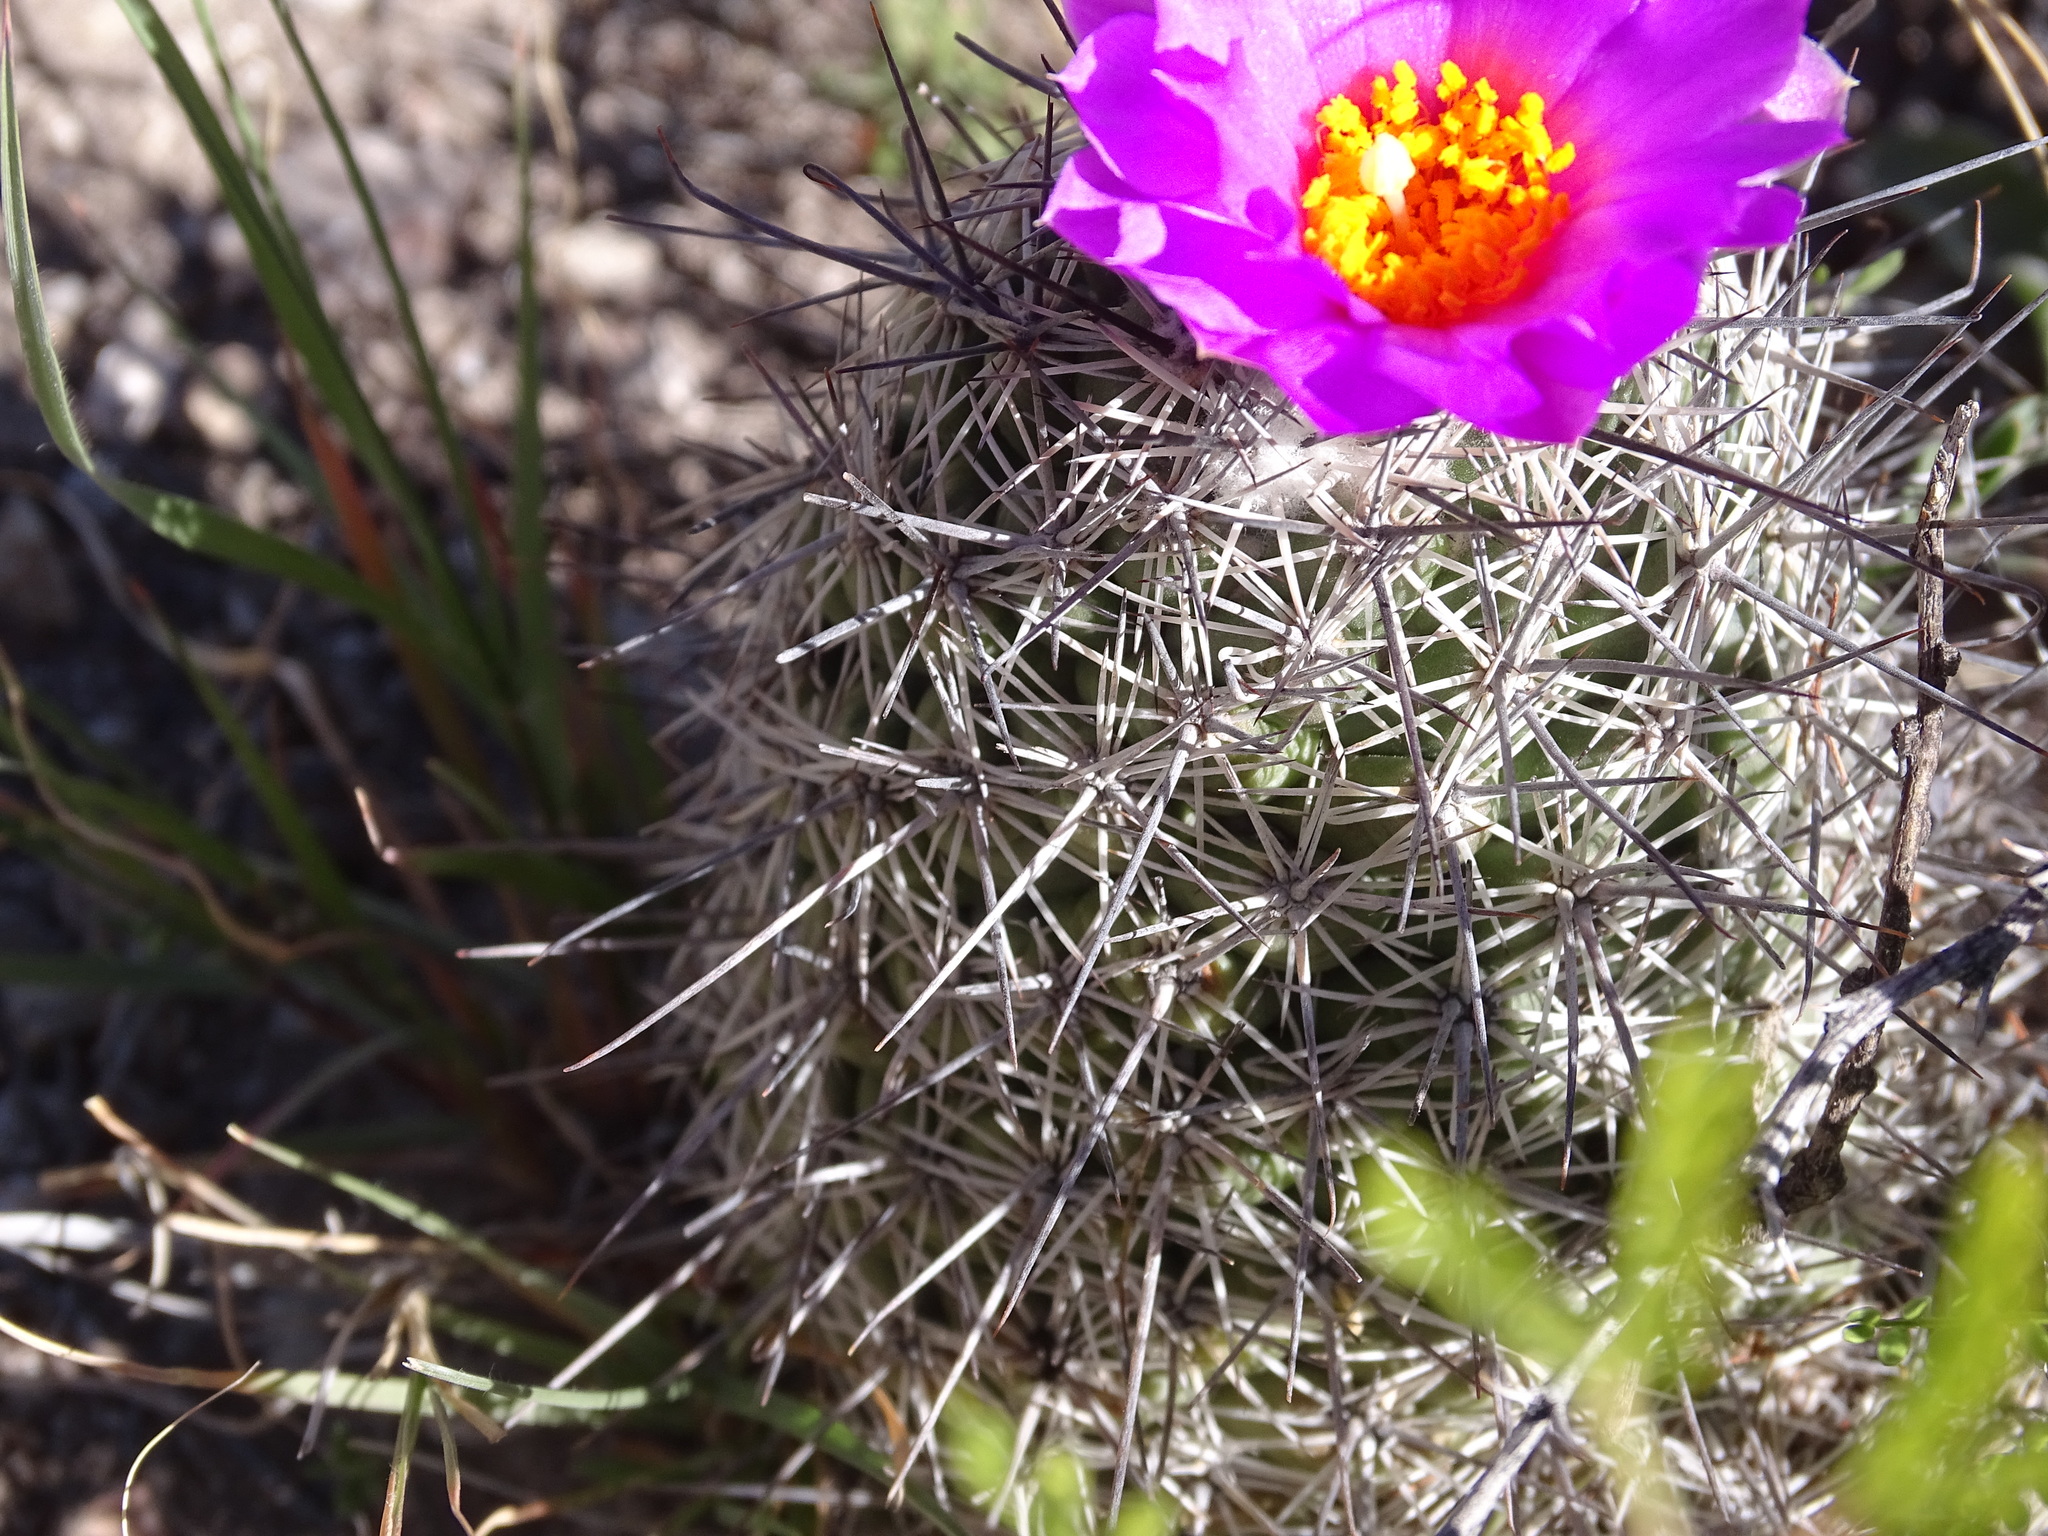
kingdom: Plantae
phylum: Tracheophyta
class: Magnoliopsida
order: Caryophyllales
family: Cactaceae
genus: Cochemiea
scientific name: Cochemiea conoidea
